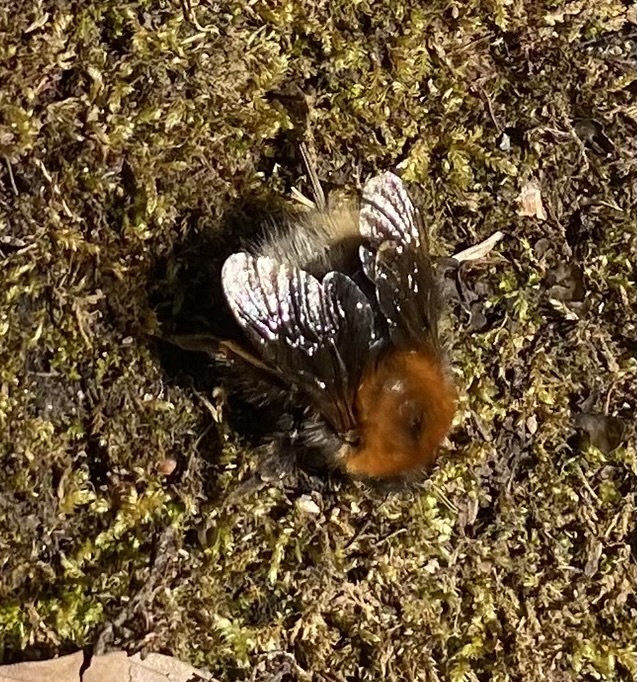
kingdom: Animalia
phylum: Arthropoda
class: Insecta
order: Hymenoptera
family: Apidae
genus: Bombus
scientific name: Bombus hypnorum
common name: New garden bumblebee
